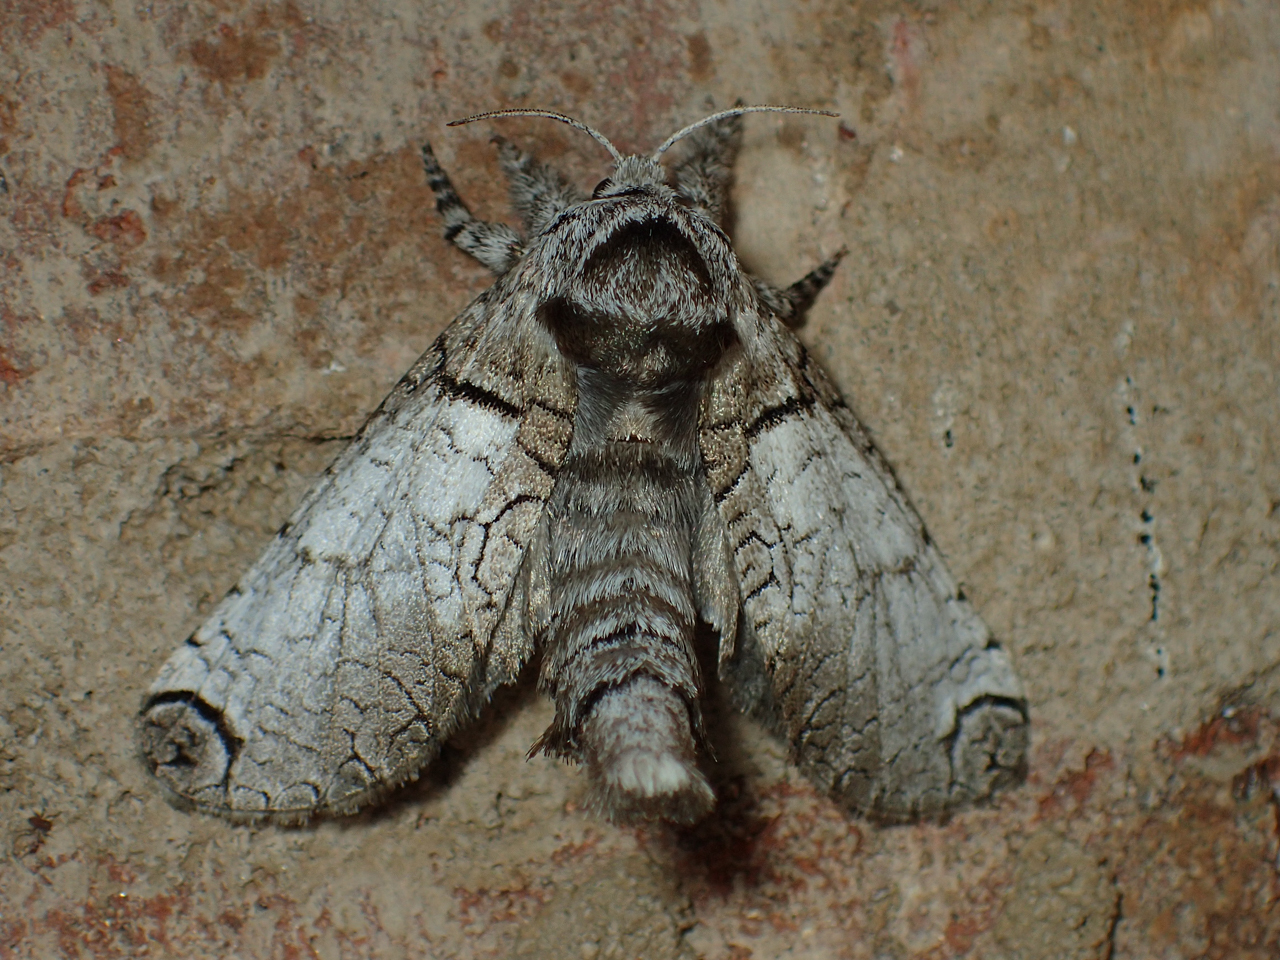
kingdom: Animalia
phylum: Arthropoda
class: Insecta
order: Lepidoptera
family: Cossidae
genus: Inguromorpha
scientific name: Inguromorpha basalis
